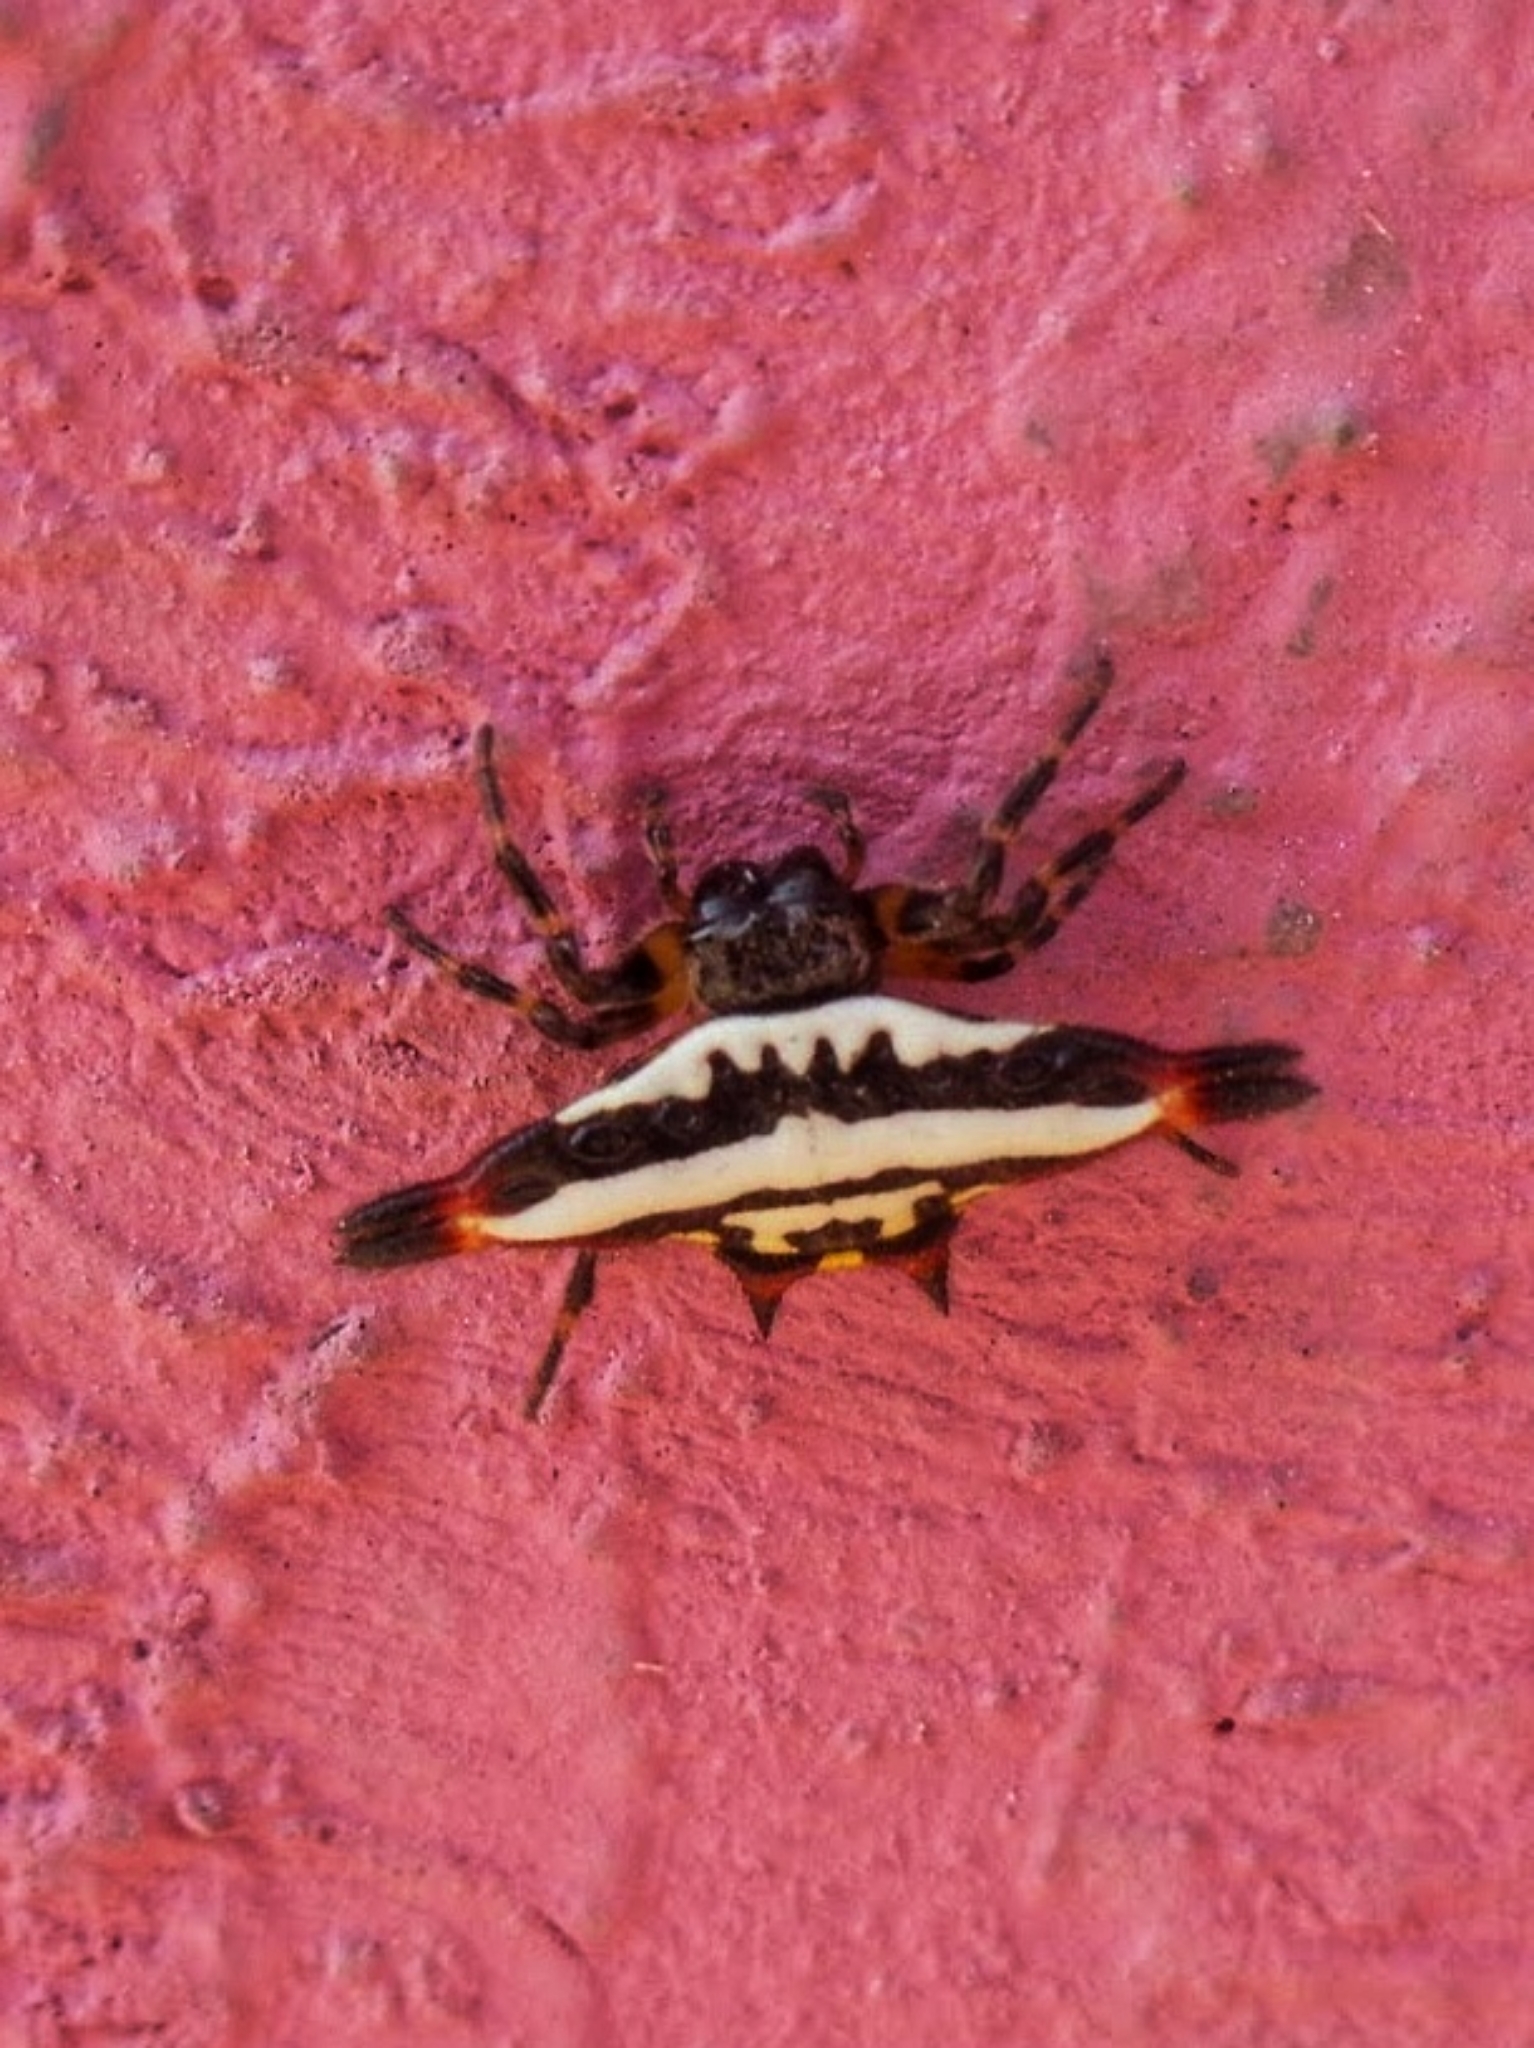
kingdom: Animalia
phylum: Arthropoda
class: Arachnida
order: Araneae
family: Araneidae
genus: Gasteracantha
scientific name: Gasteracantha geminata
